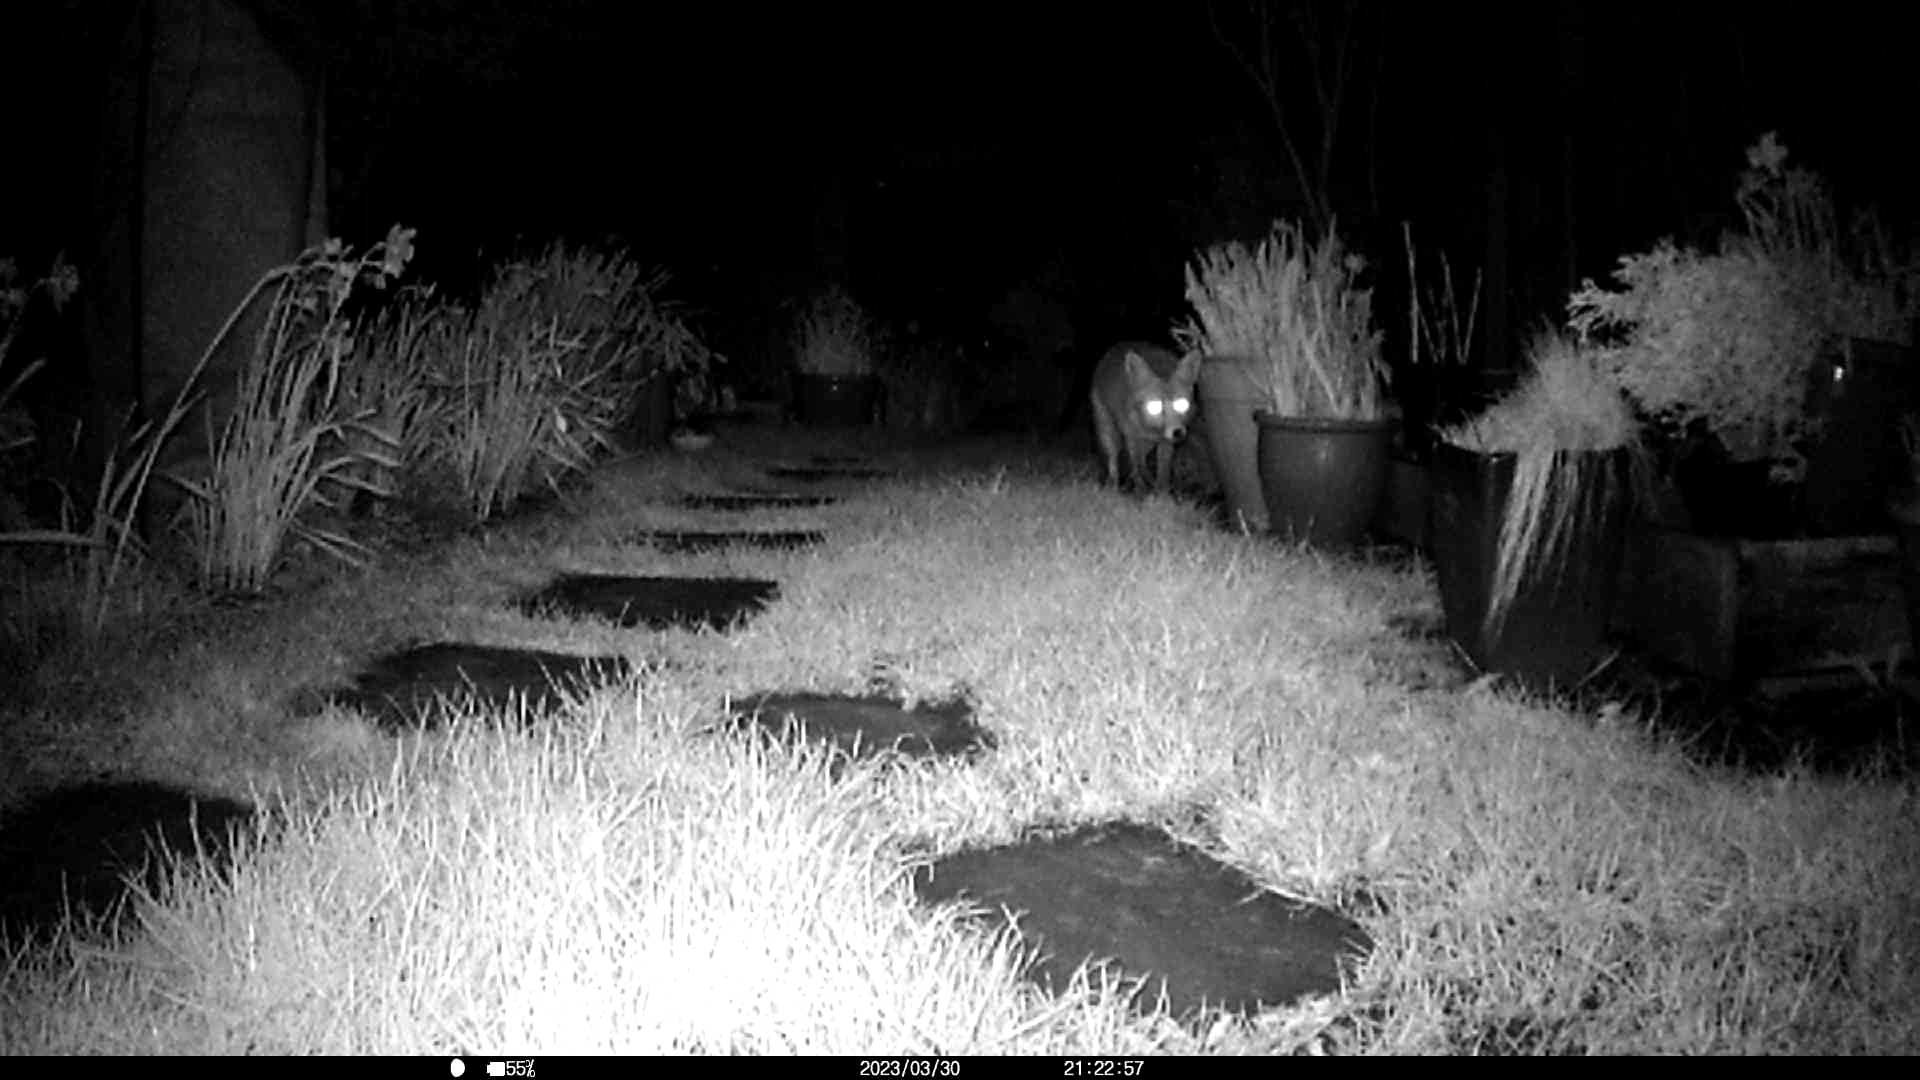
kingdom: Animalia
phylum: Chordata
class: Mammalia
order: Carnivora
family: Canidae
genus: Vulpes
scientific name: Vulpes vulpes
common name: Red fox
